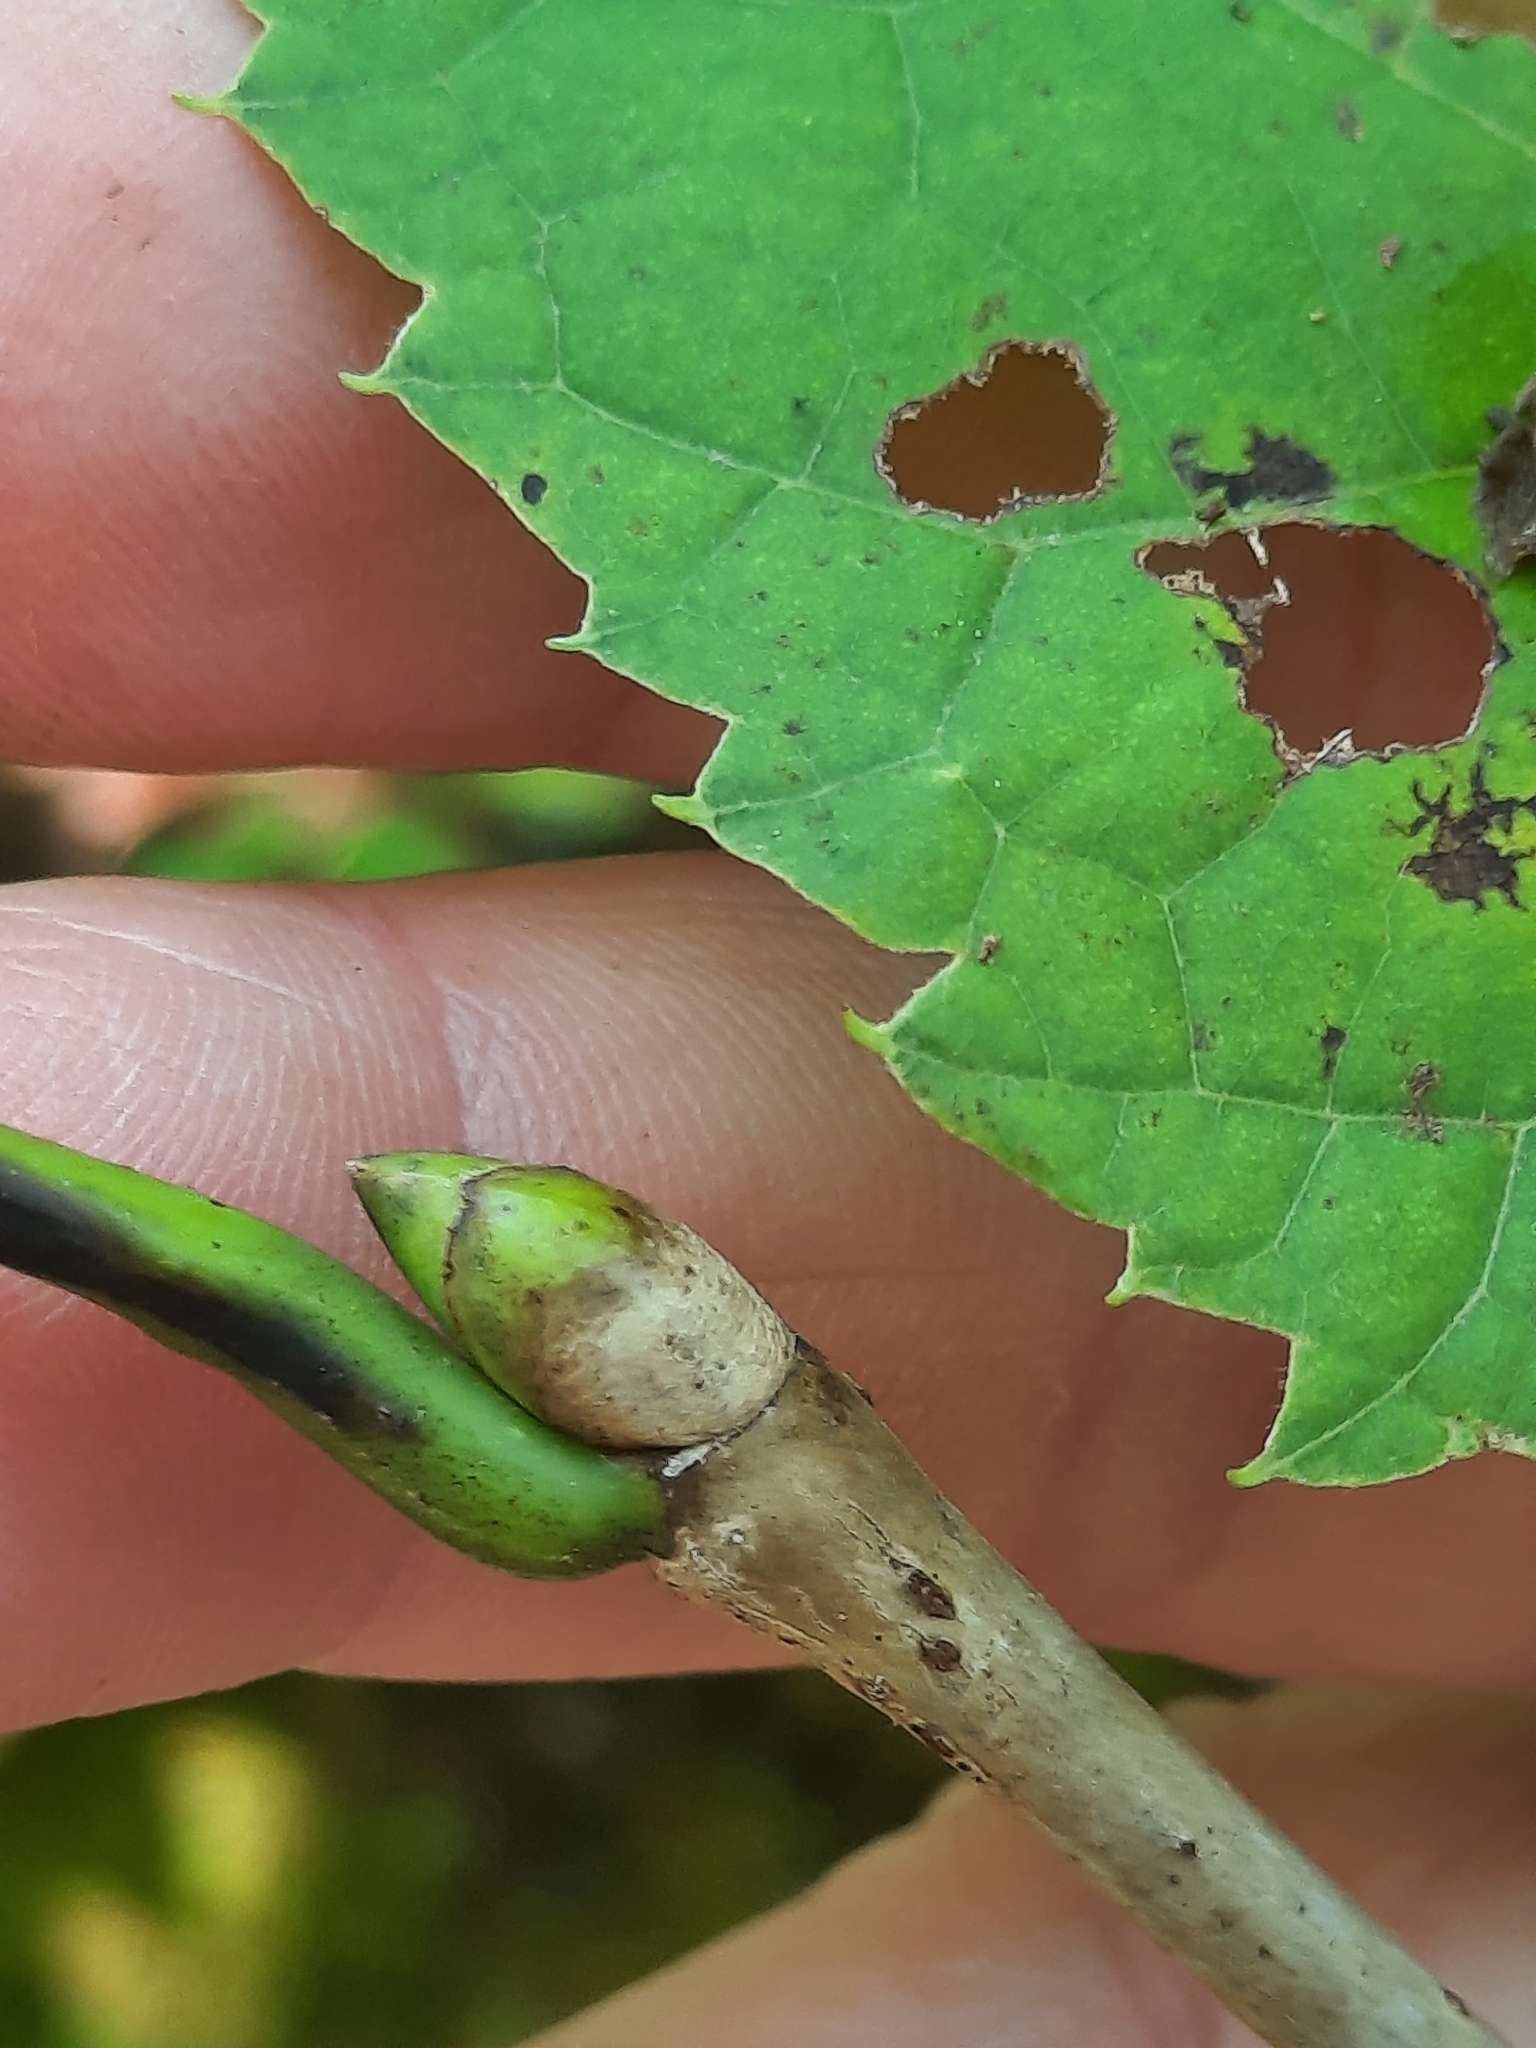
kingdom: Plantae
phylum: Tracheophyta
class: Magnoliopsida
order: Malvales
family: Malvaceae
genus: Tilia
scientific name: Tilia americana
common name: Basswood
